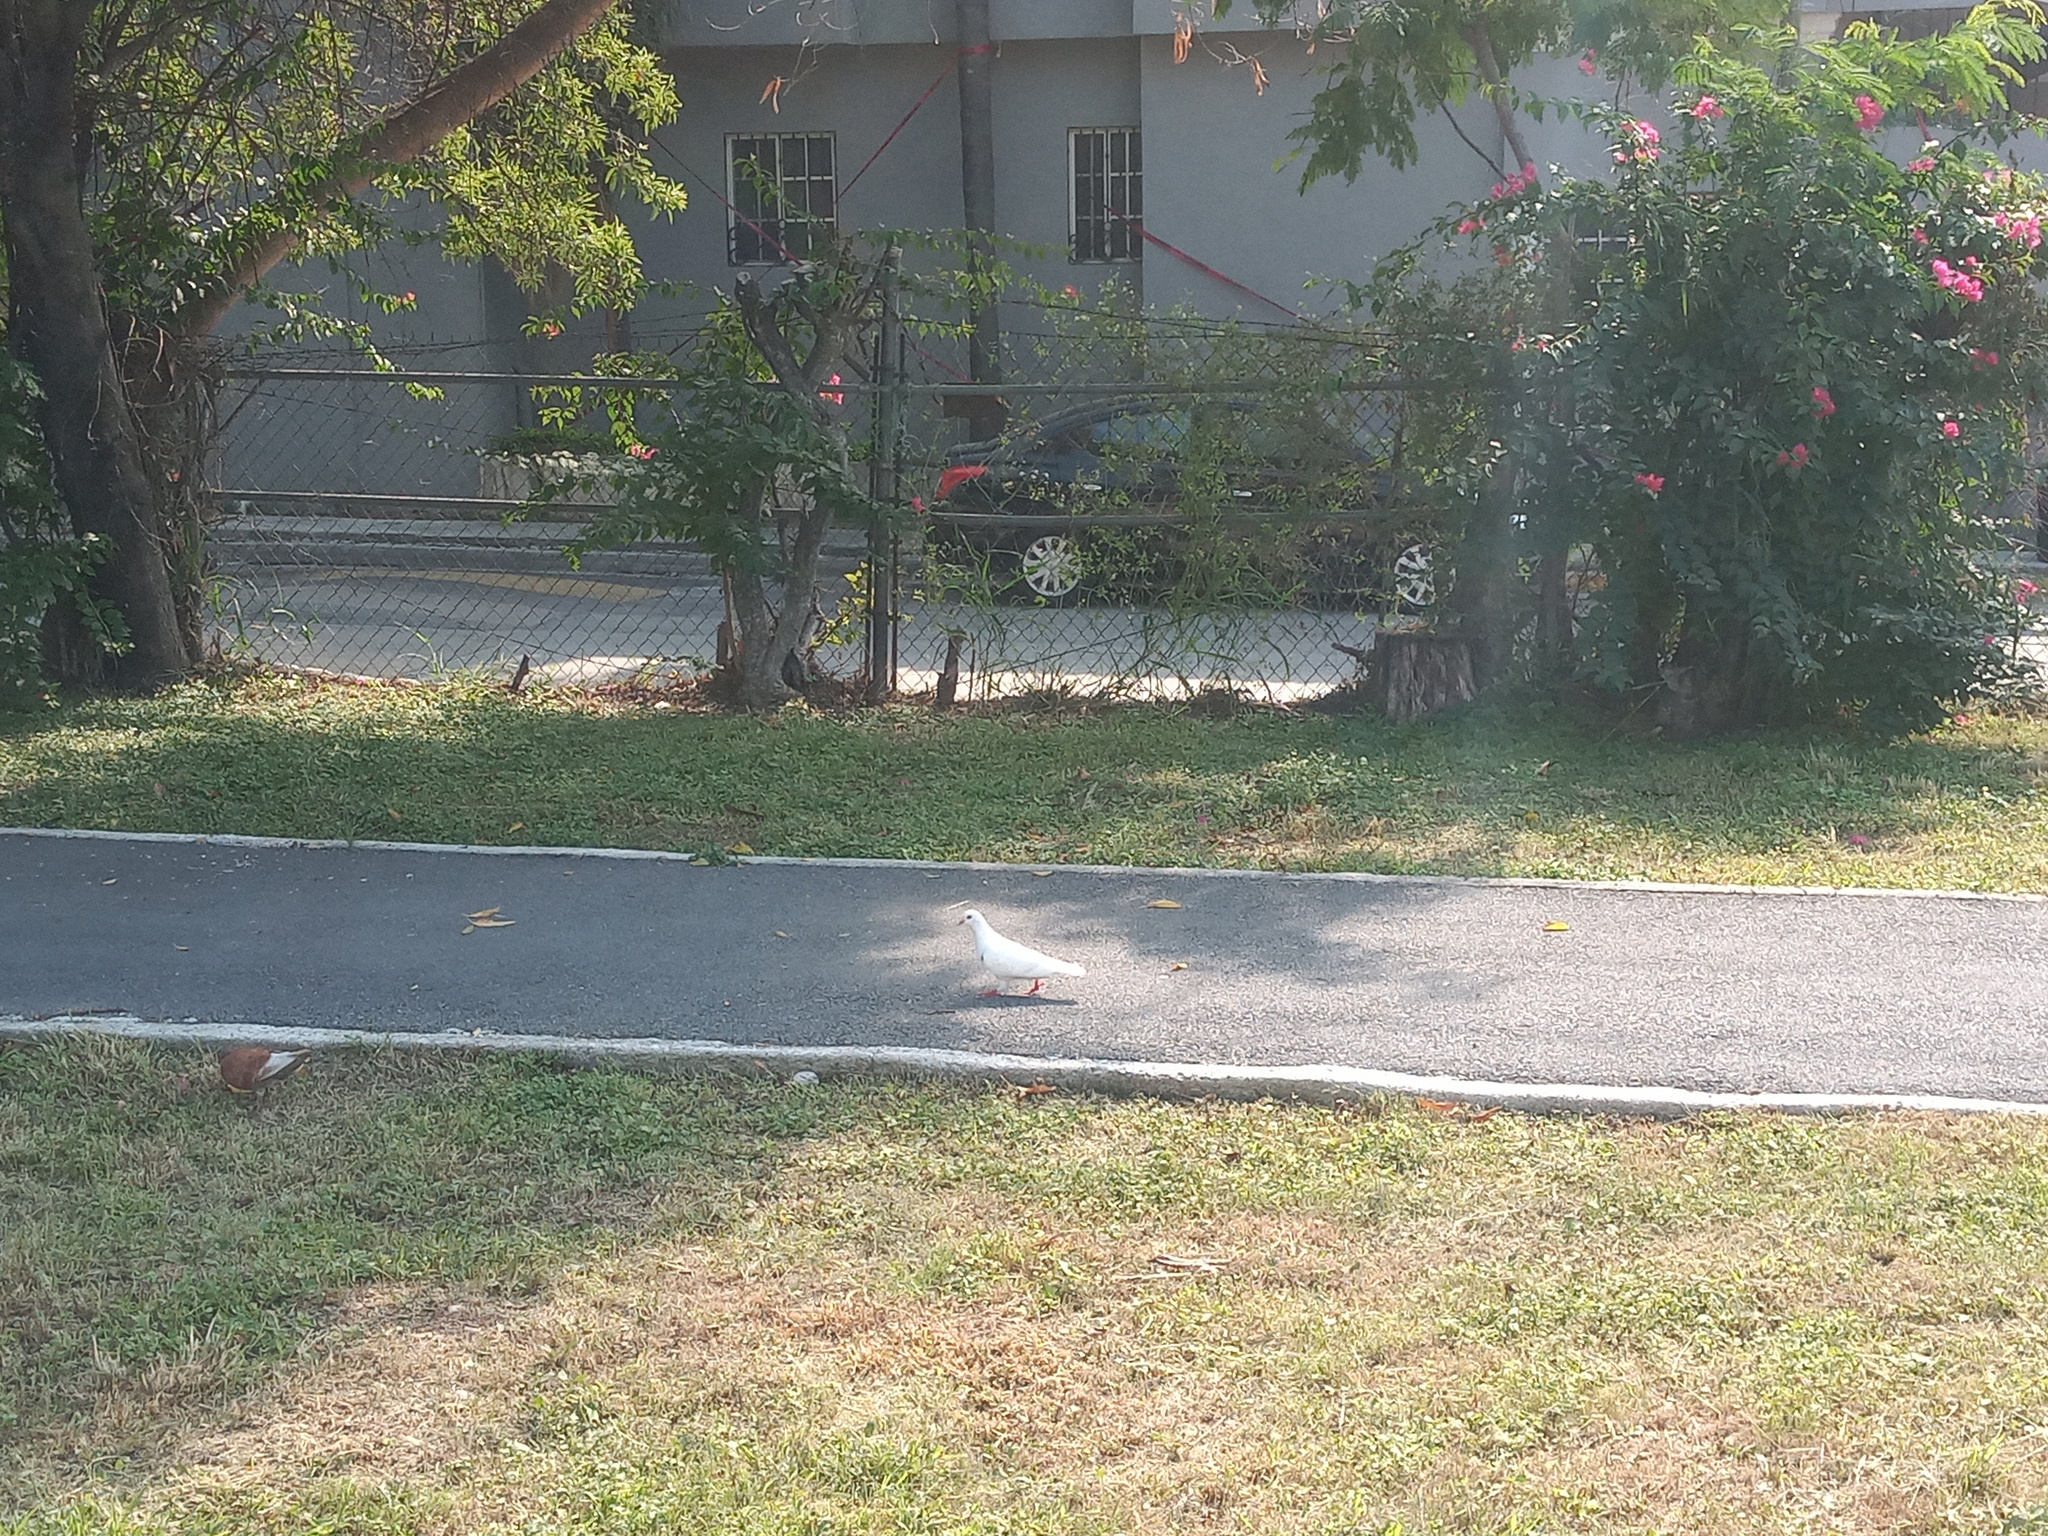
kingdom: Animalia
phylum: Chordata
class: Aves
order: Columbiformes
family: Columbidae
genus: Columba
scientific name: Columba livia
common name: Rock pigeon
